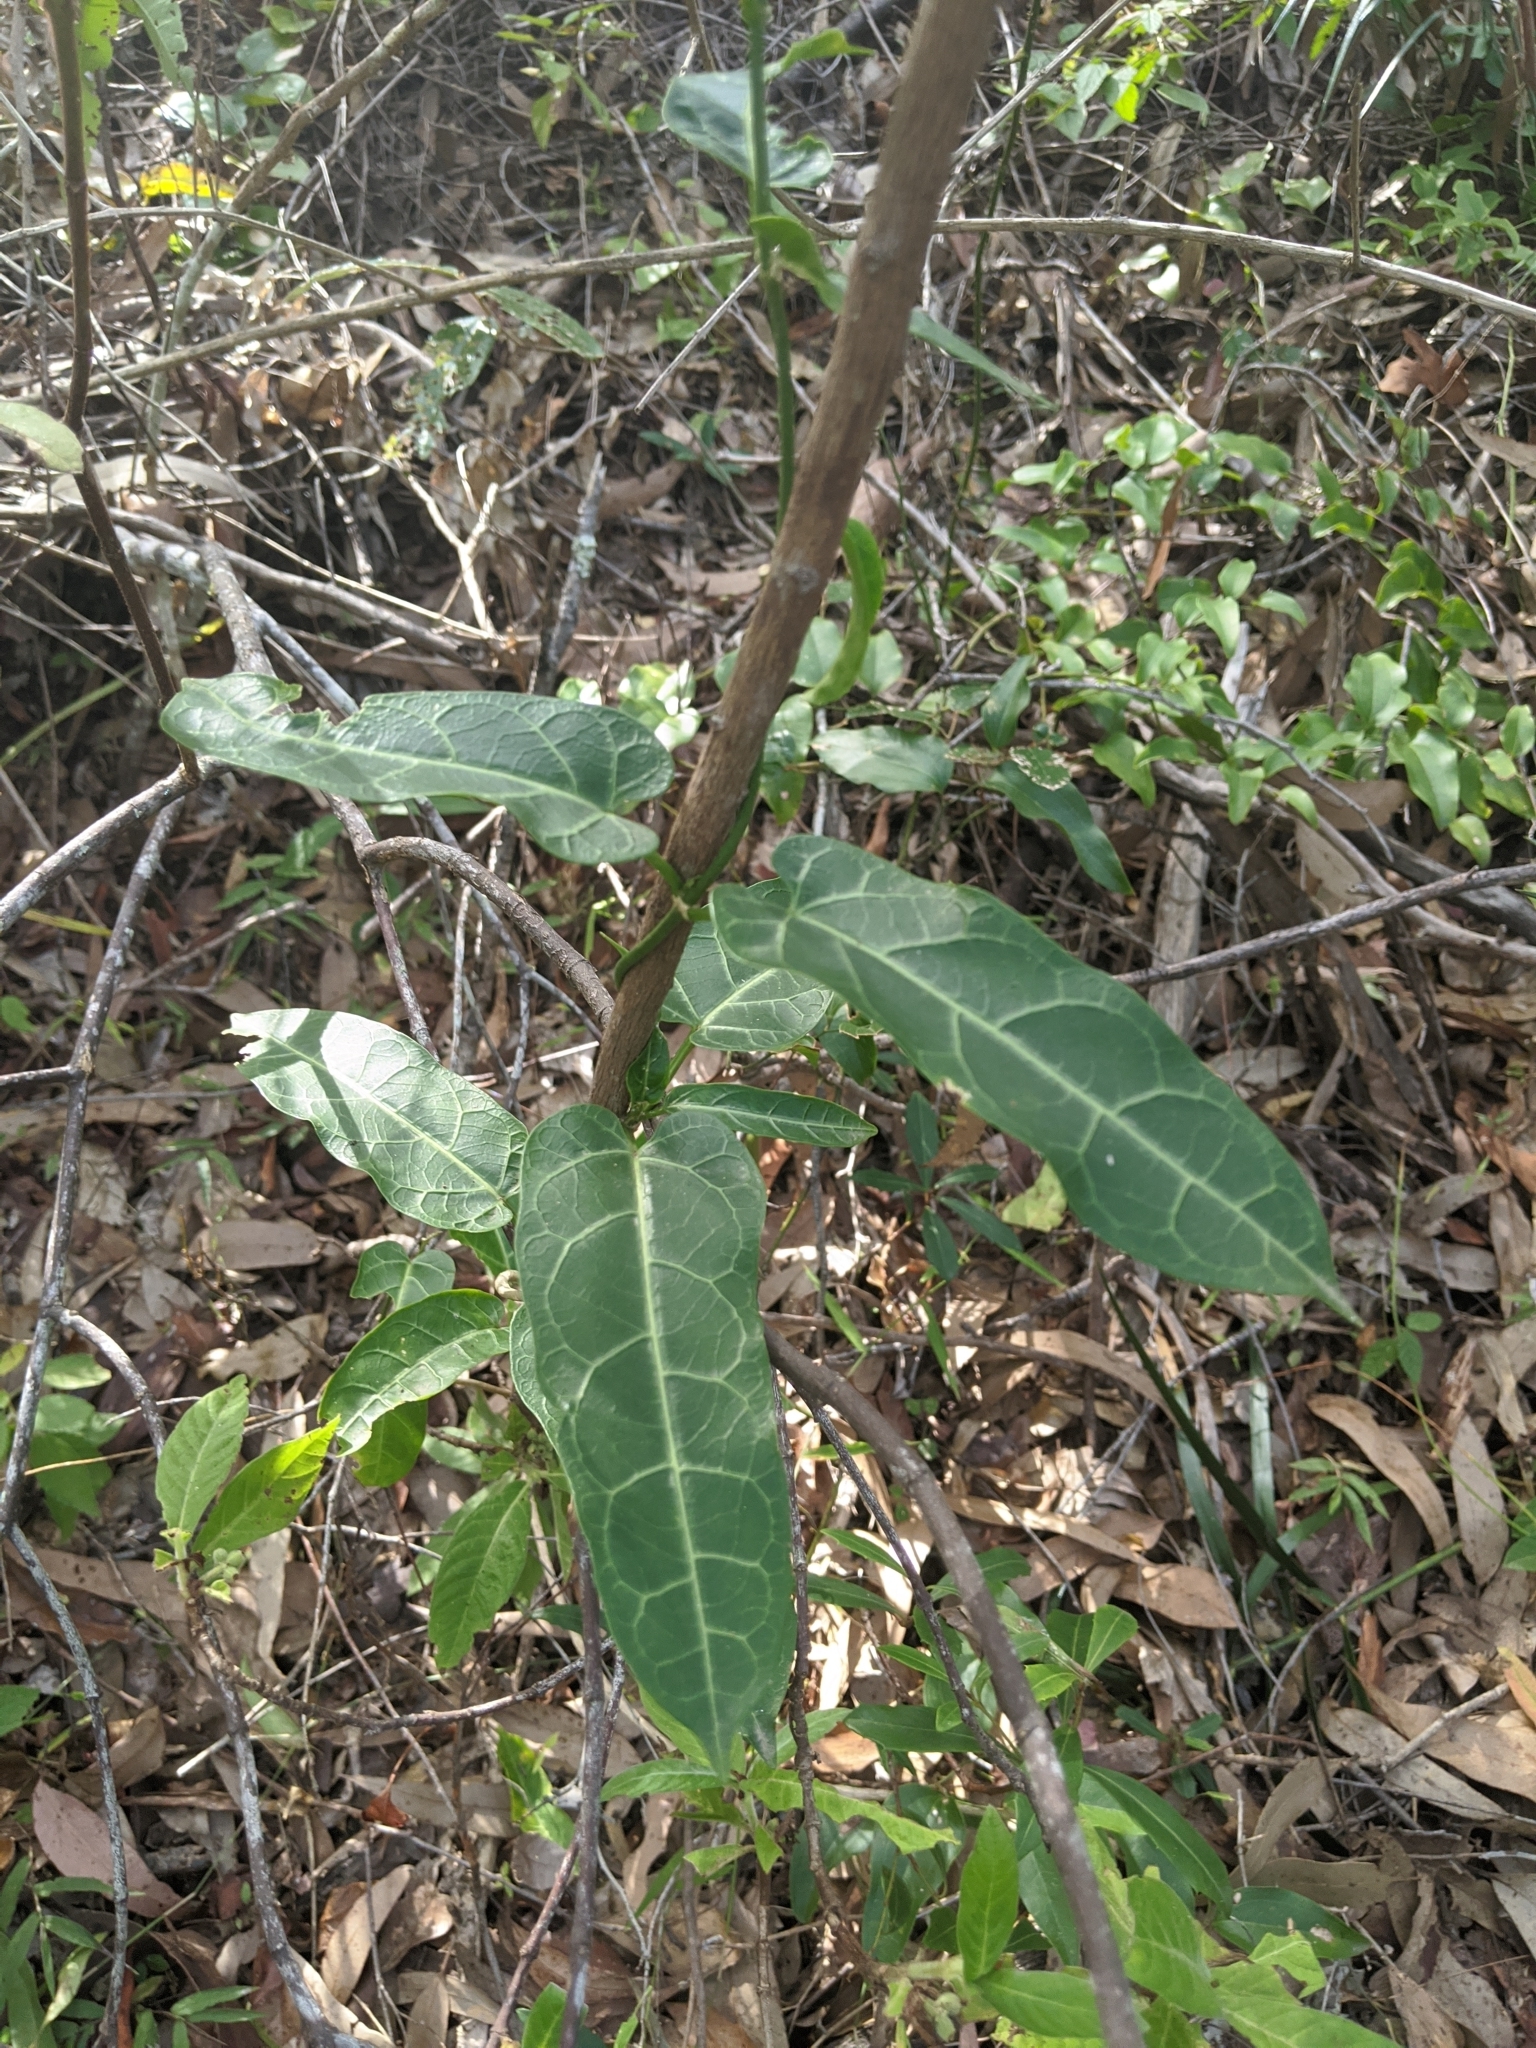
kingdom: Plantae
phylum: Tracheophyta
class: Magnoliopsida
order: Gentianales
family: Apocynaceae
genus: Leichhardtia
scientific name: Leichhardtia lloydii
